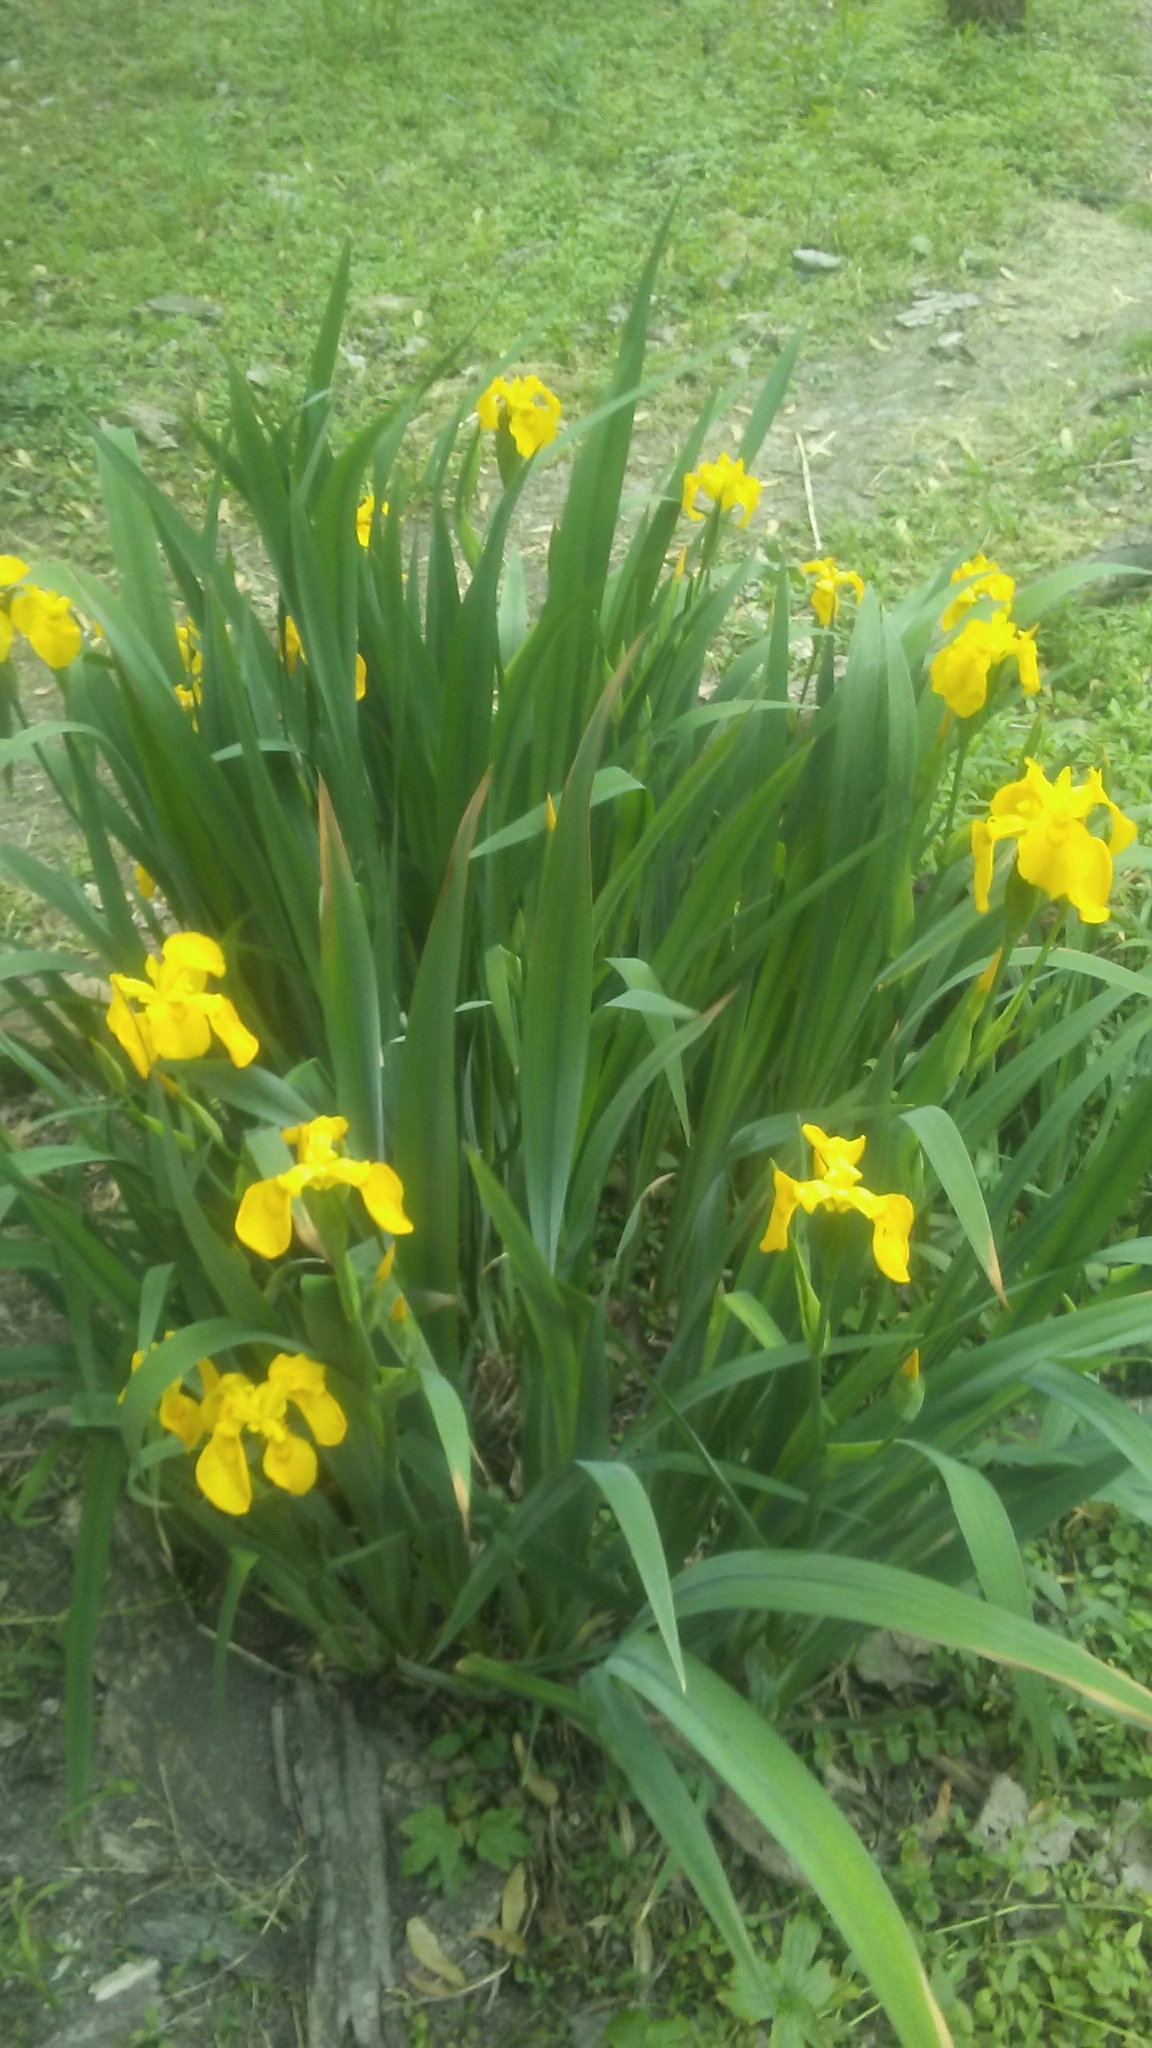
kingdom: Plantae
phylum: Tracheophyta
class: Liliopsida
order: Asparagales
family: Iridaceae
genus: Iris
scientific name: Iris pseudacorus
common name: Yellow flag
